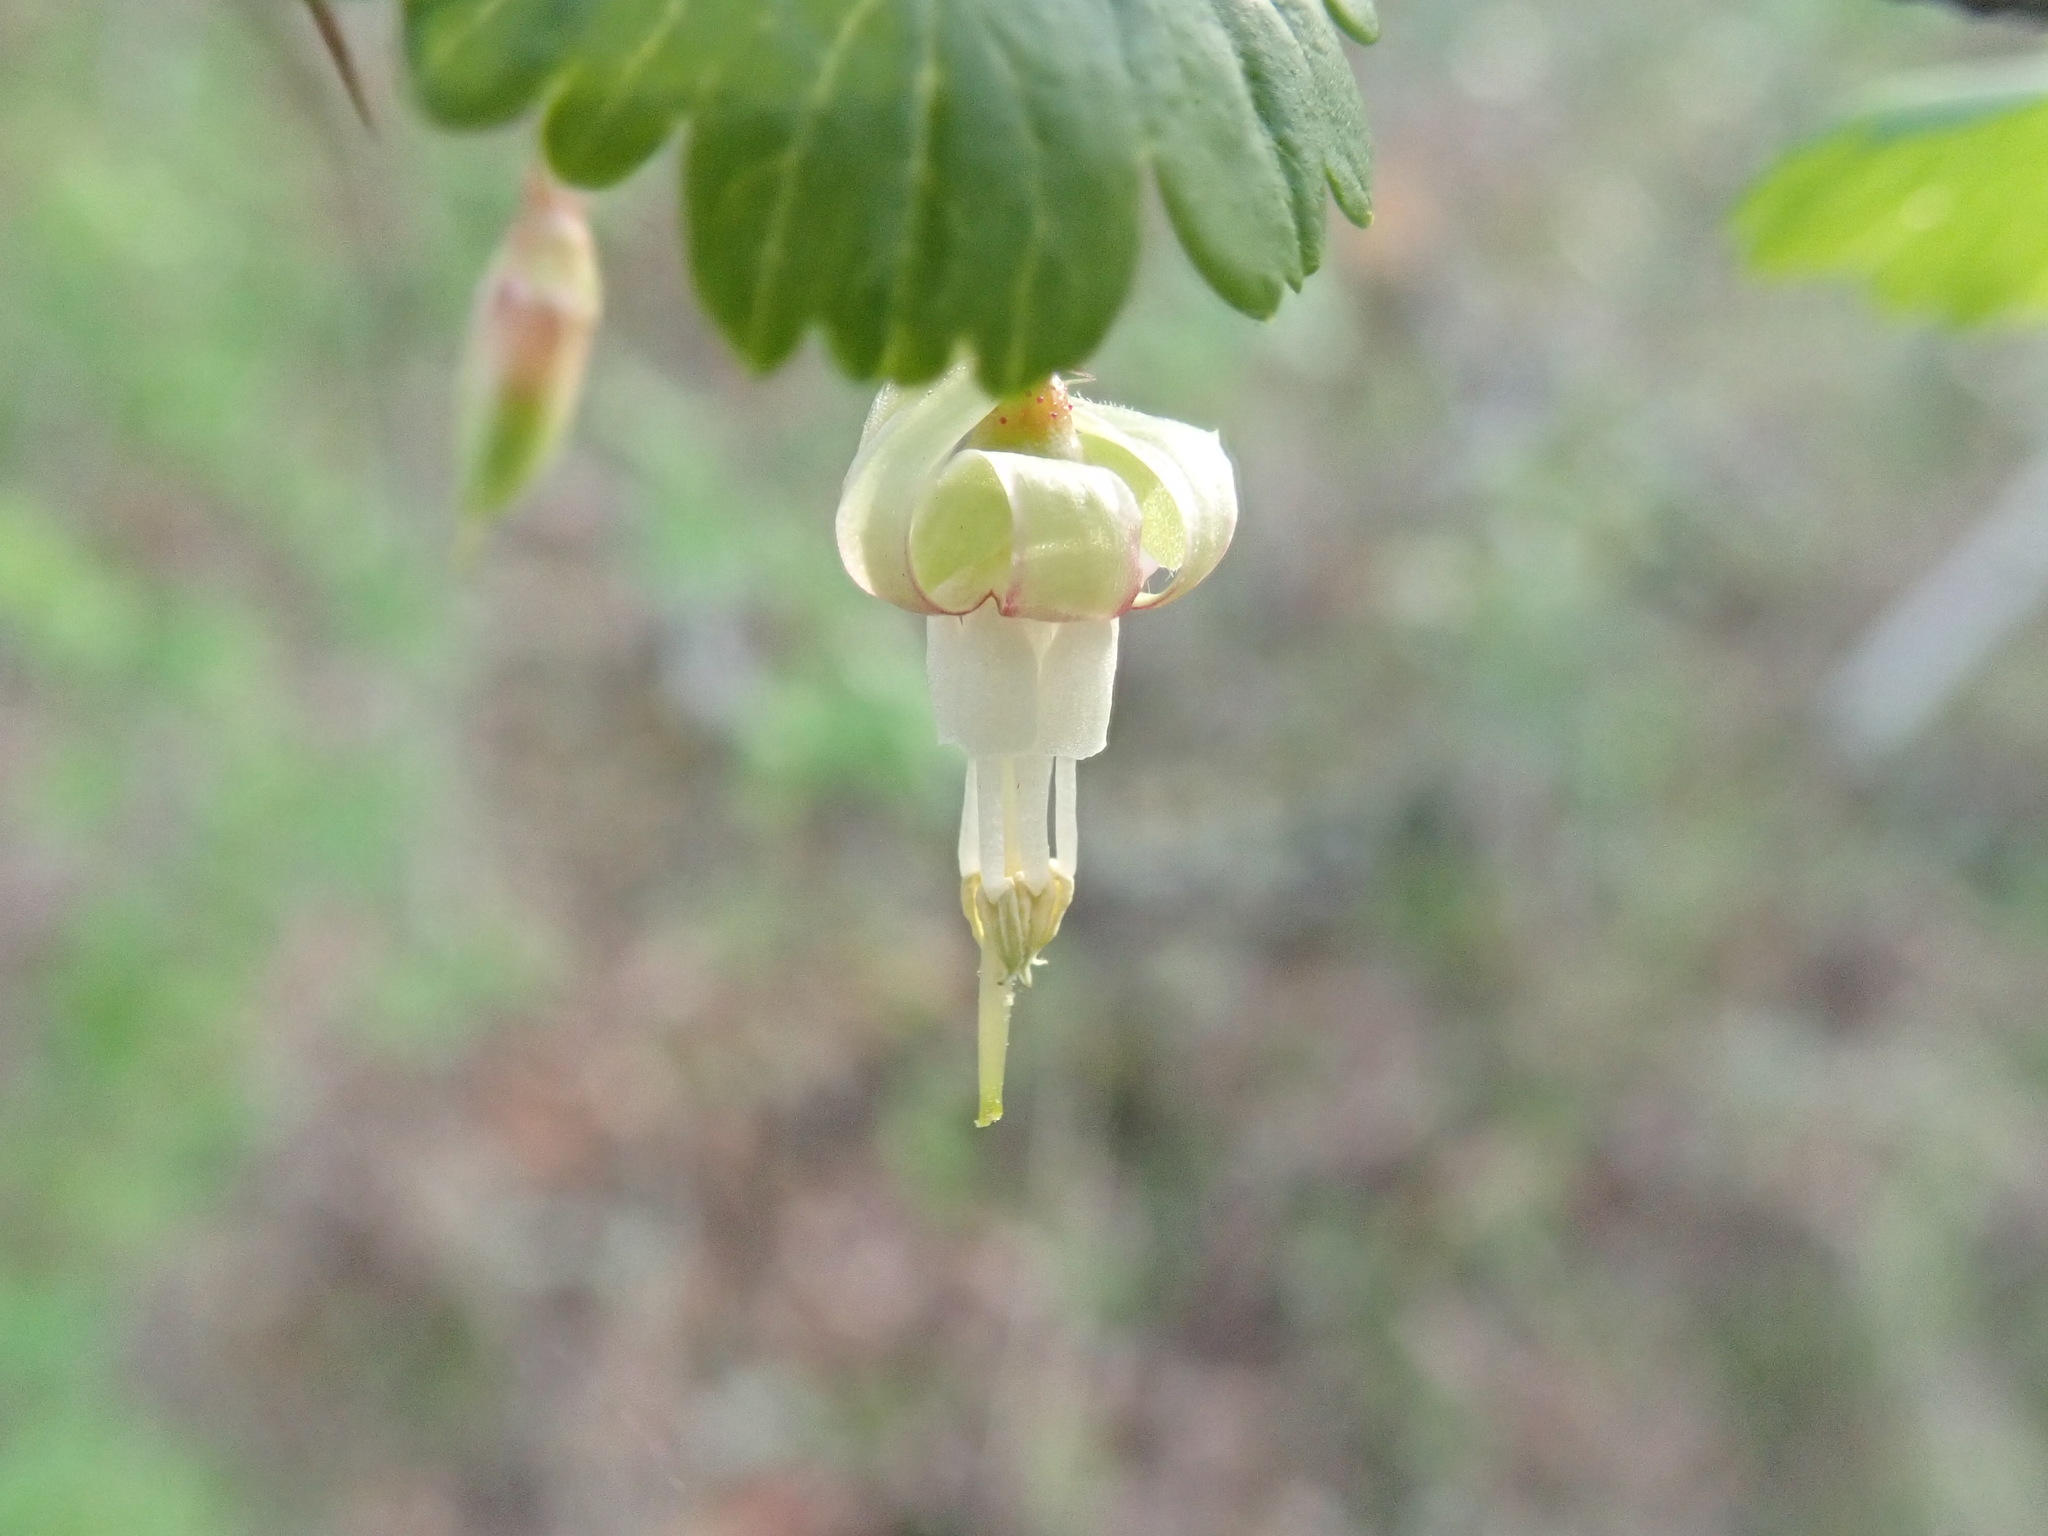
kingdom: Plantae
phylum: Tracheophyta
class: Magnoliopsida
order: Saxifragales
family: Grossulariaceae
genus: Ribes
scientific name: Ribes californicum
